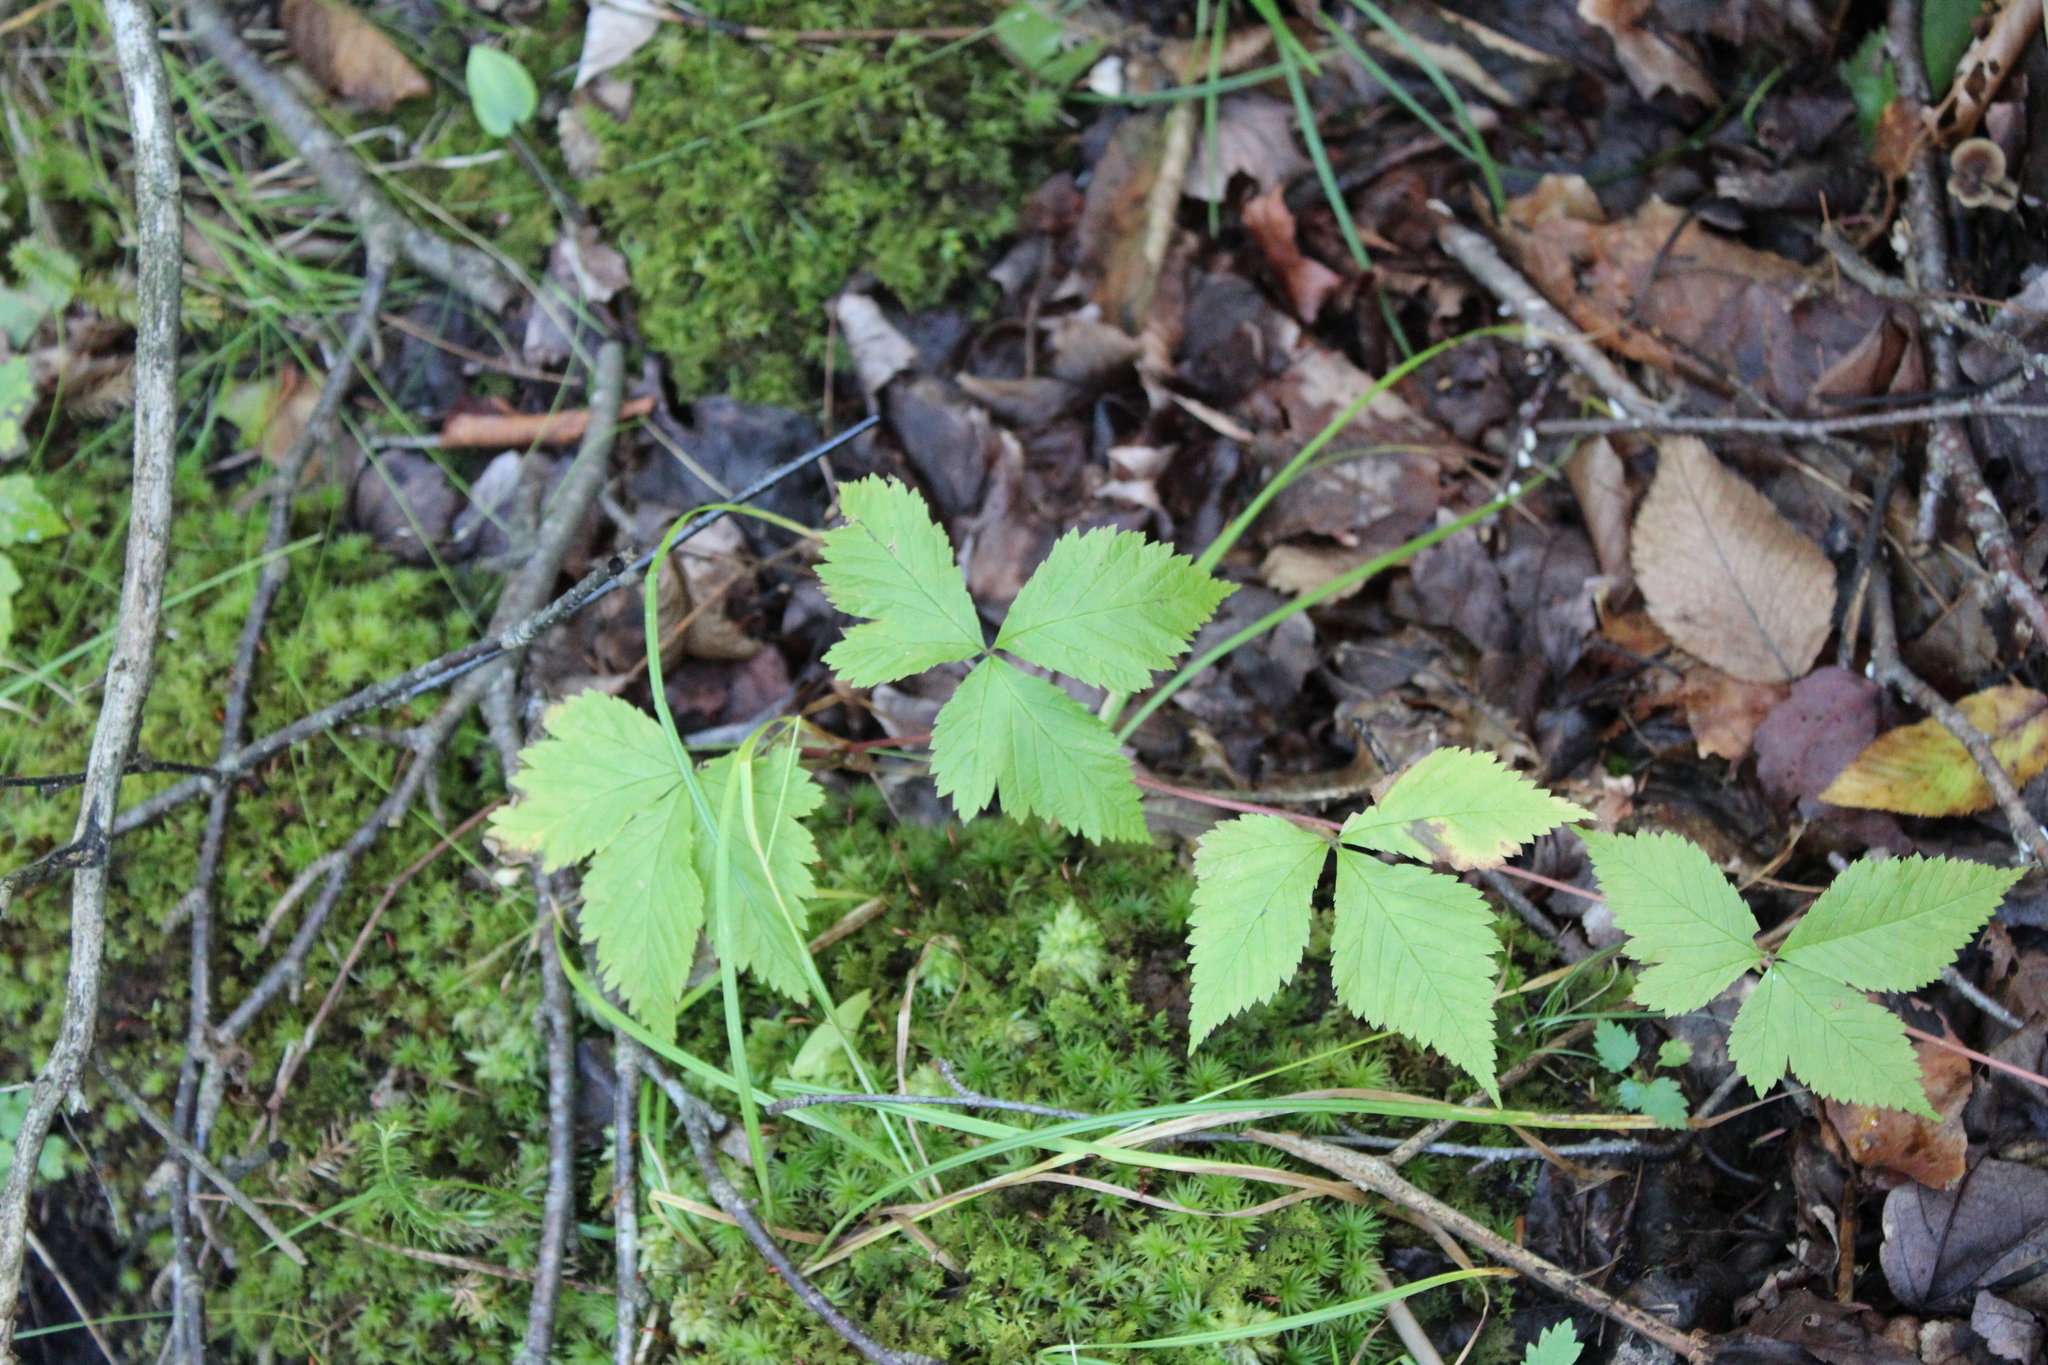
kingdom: Plantae
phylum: Tracheophyta
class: Magnoliopsida
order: Rosales
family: Rosaceae
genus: Rubus
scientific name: Rubus pubescens
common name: Dwarf raspberry
